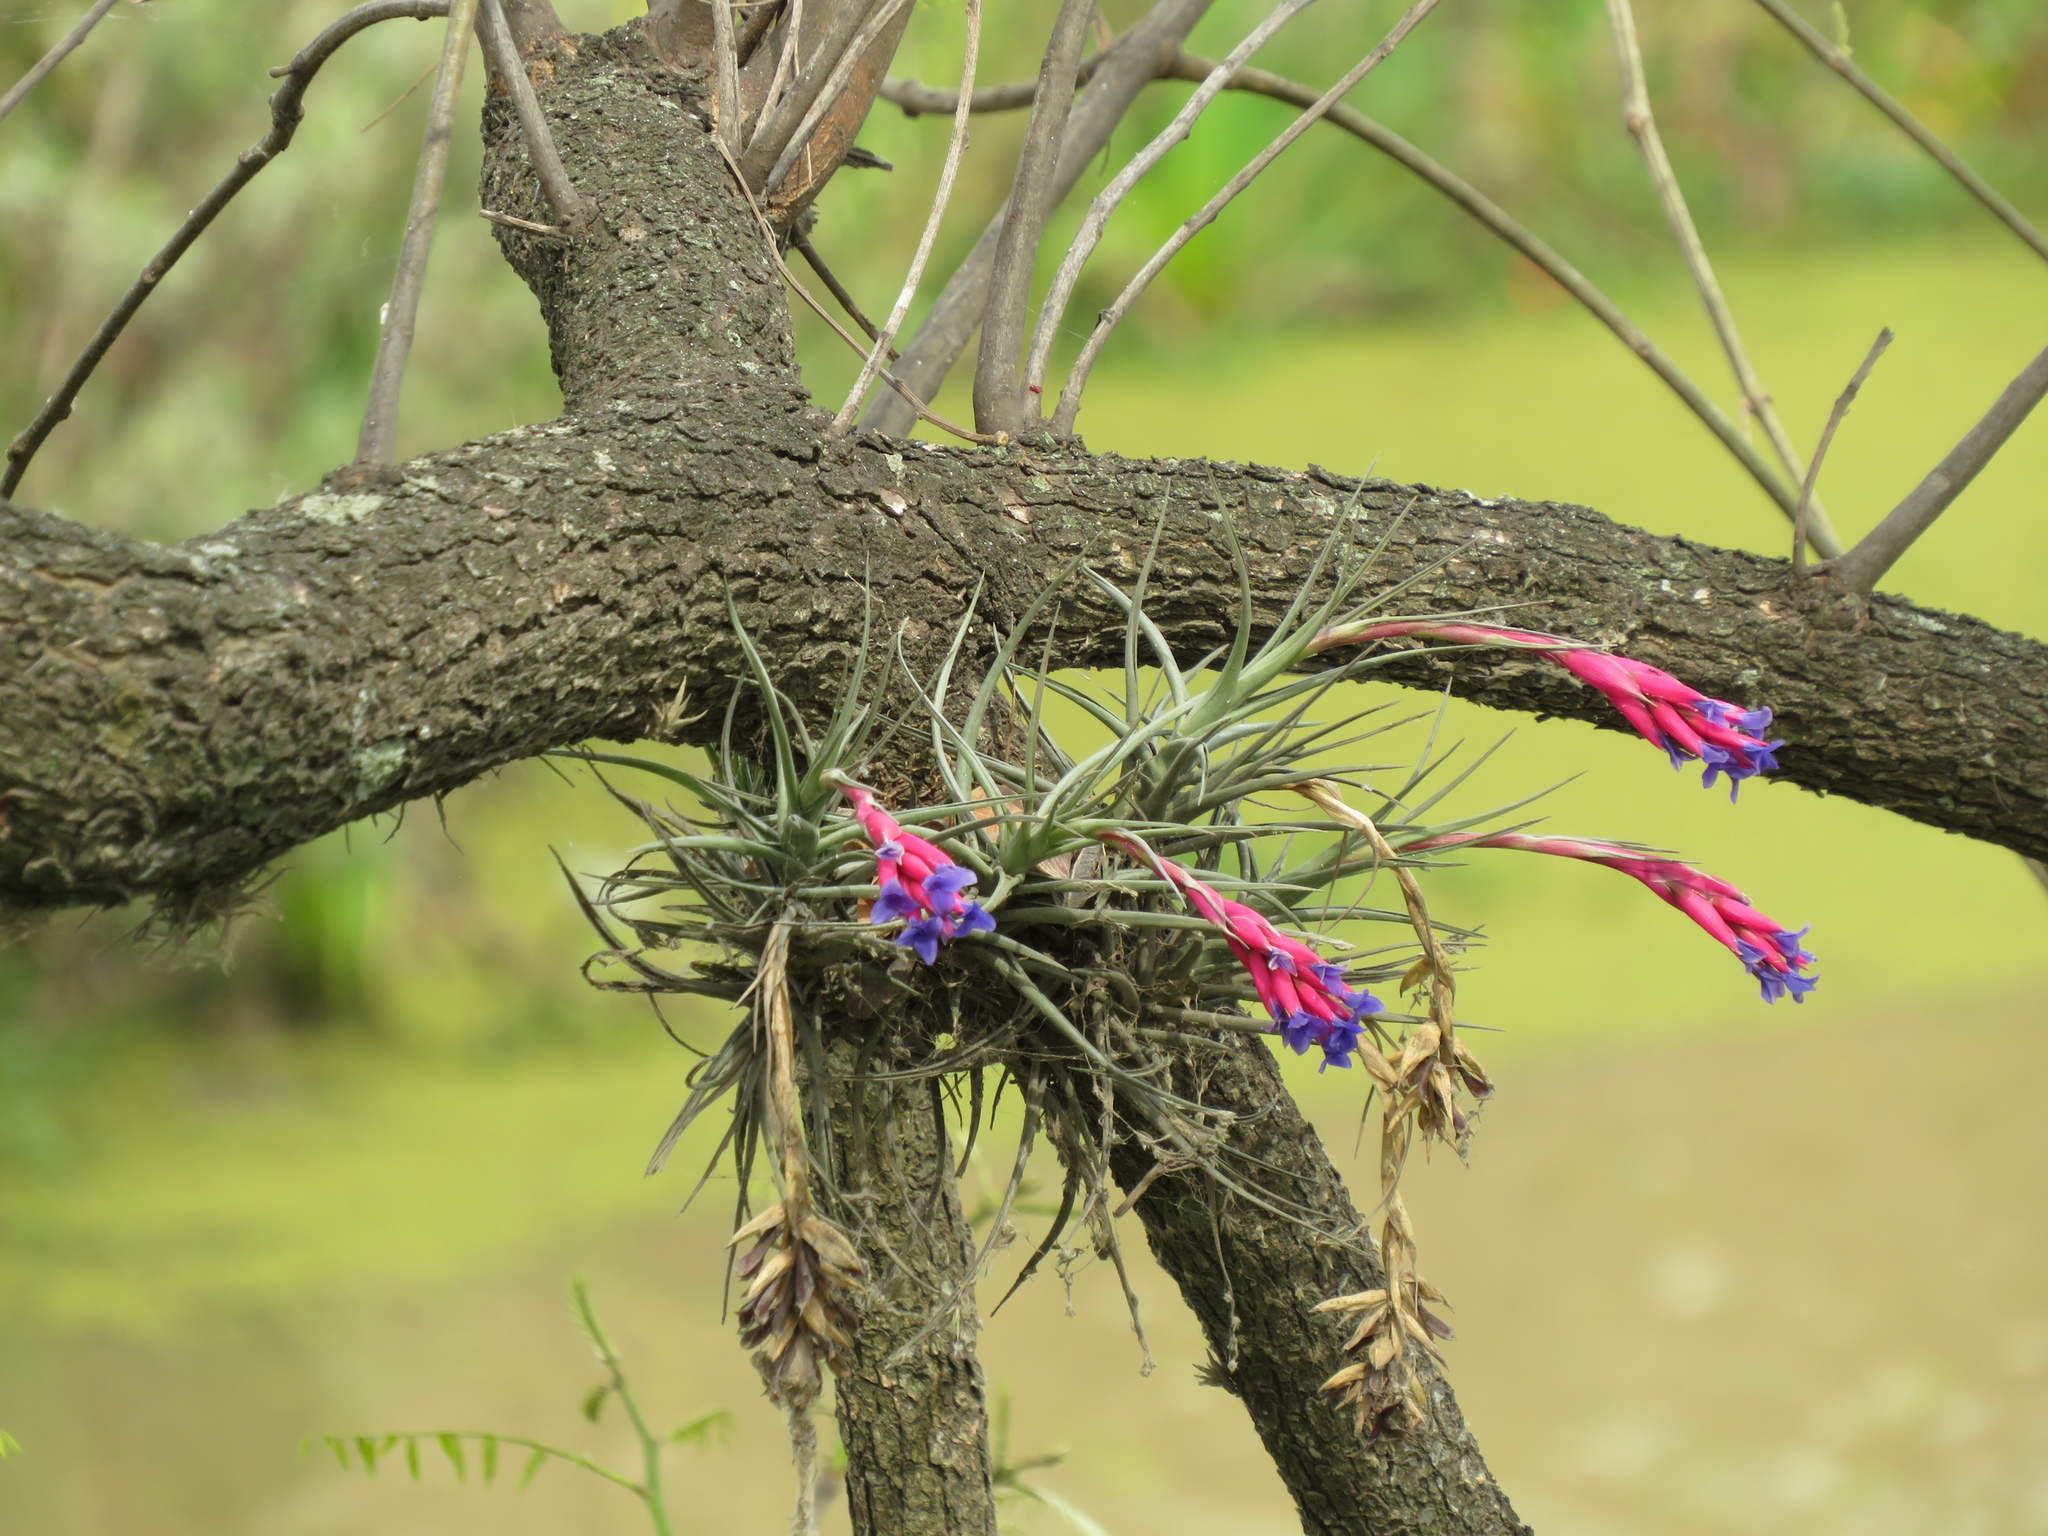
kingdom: Plantae
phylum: Tracheophyta
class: Liliopsida
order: Poales
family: Bromeliaceae
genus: Tillandsia
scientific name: Tillandsia aeranthos
